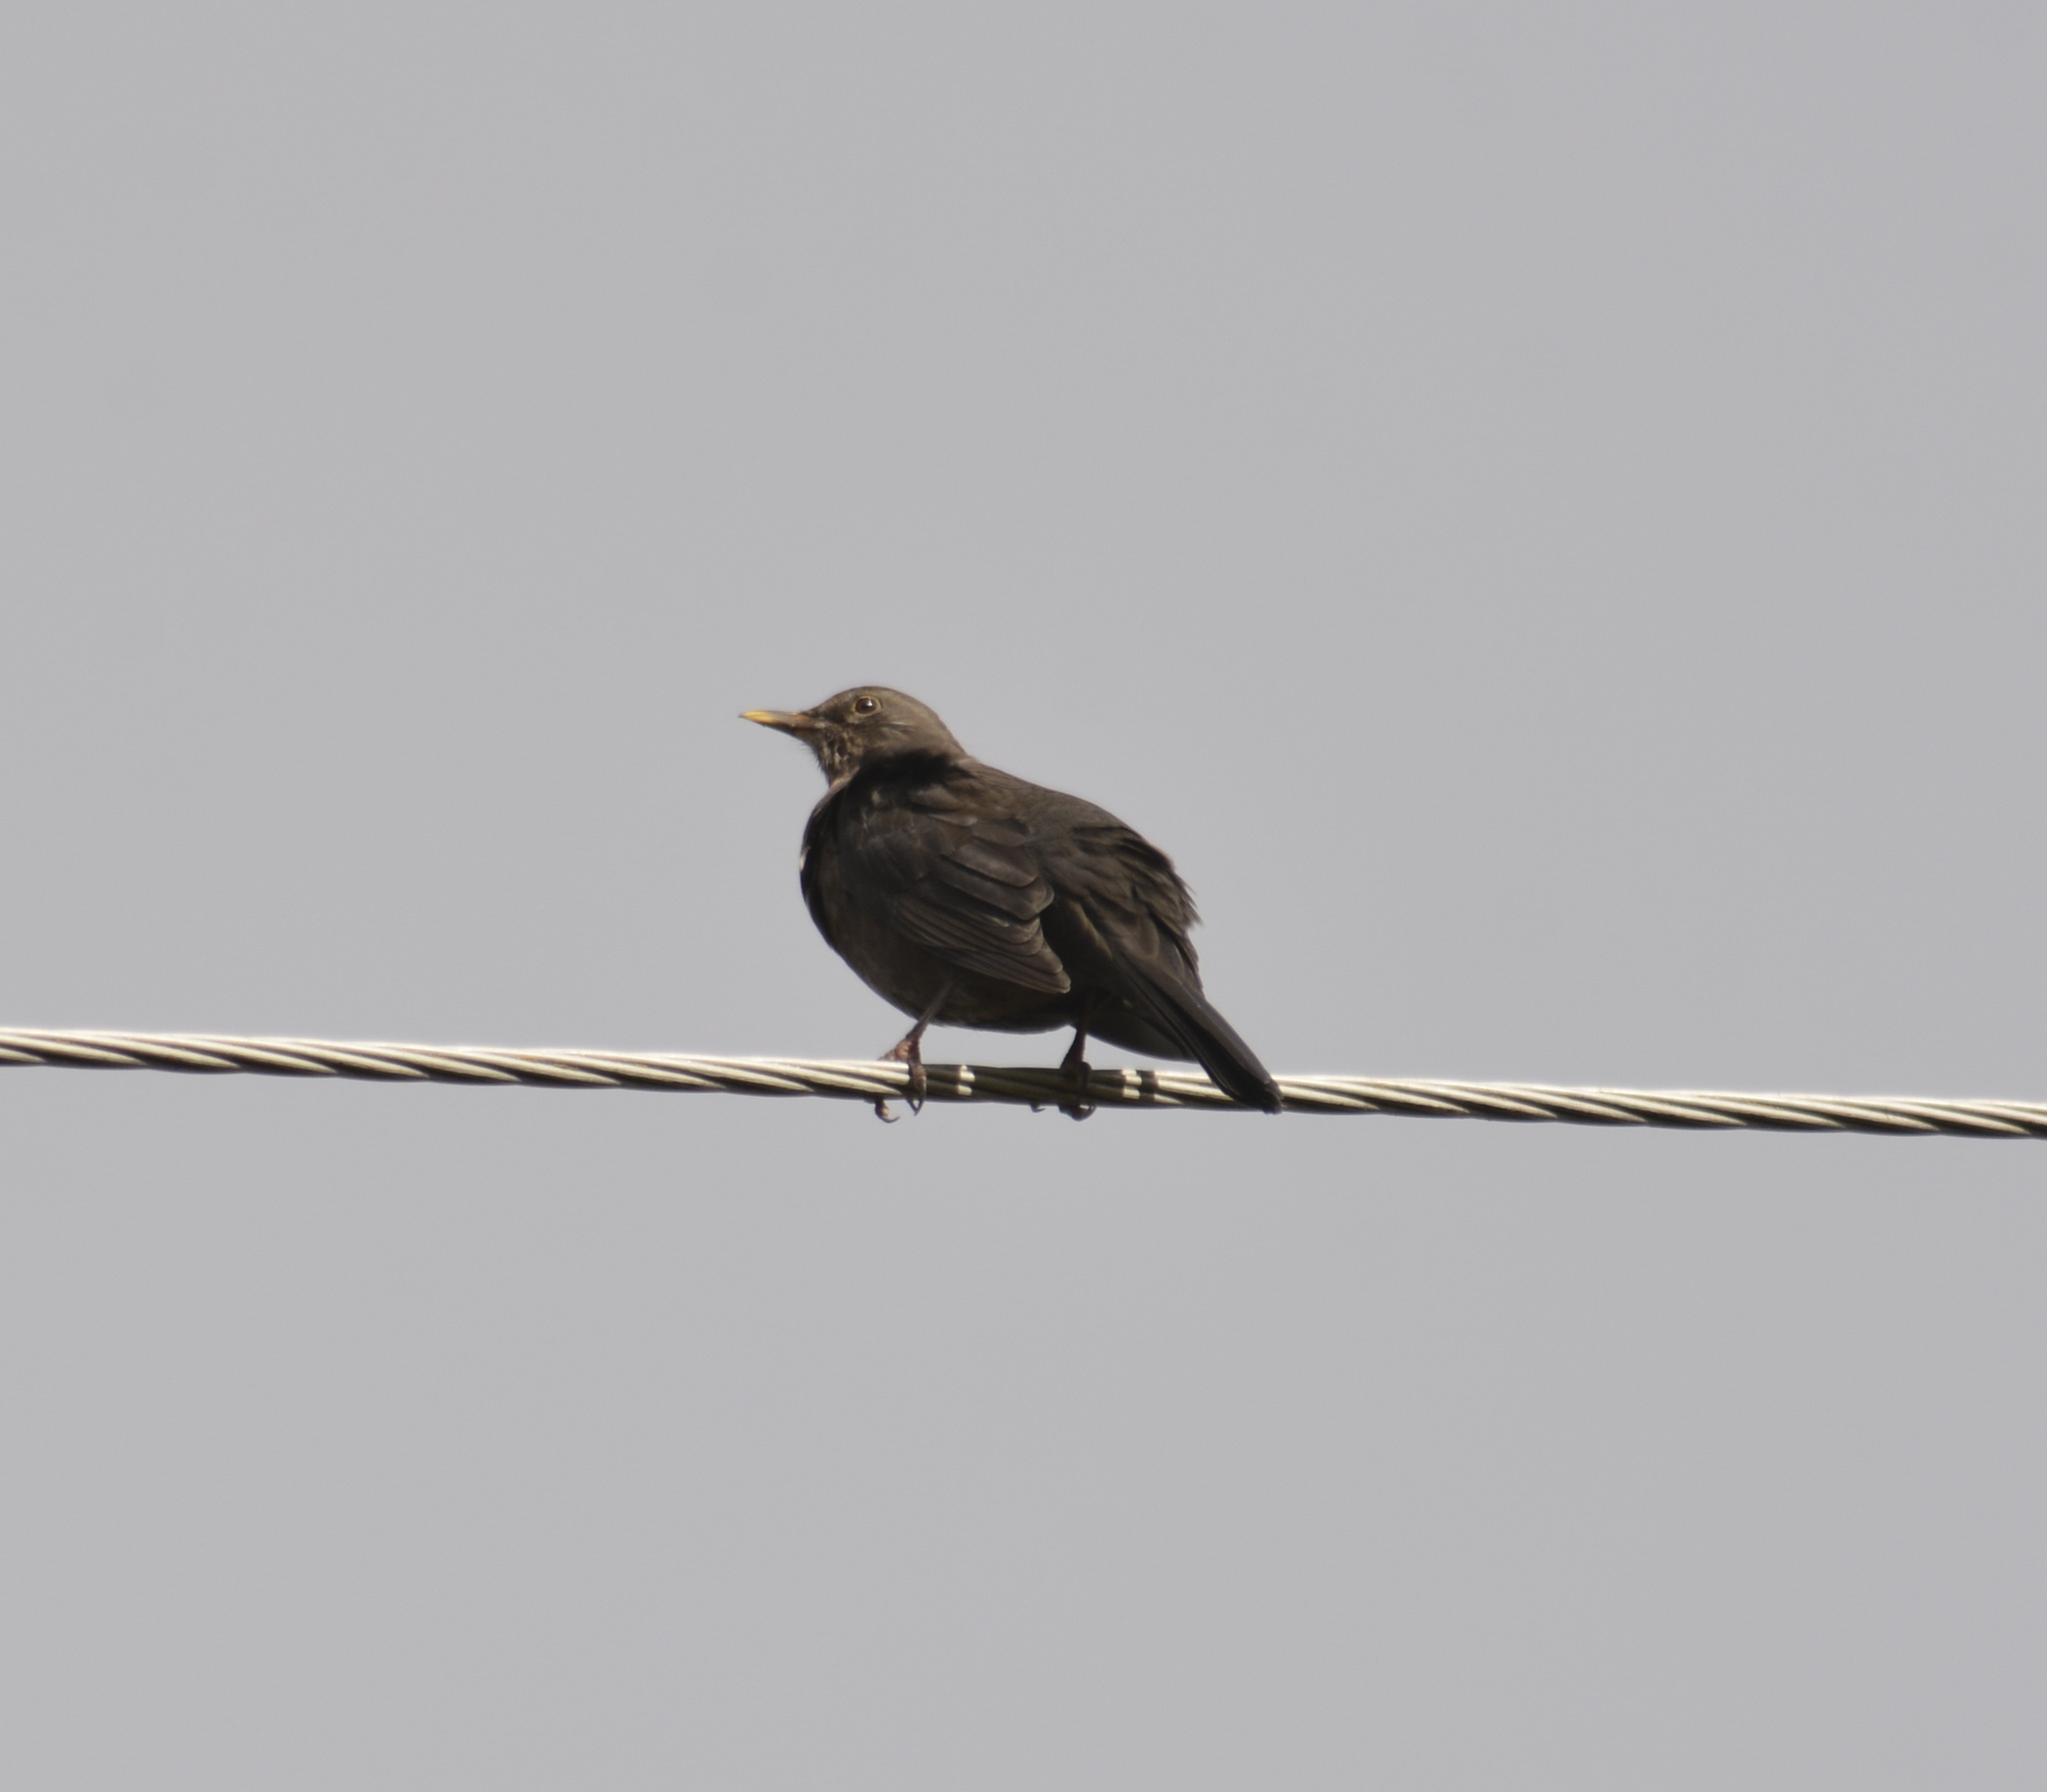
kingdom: Animalia
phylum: Chordata
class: Aves
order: Passeriformes
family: Turdidae
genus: Turdus
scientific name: Turdus merula
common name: Common blackbird
